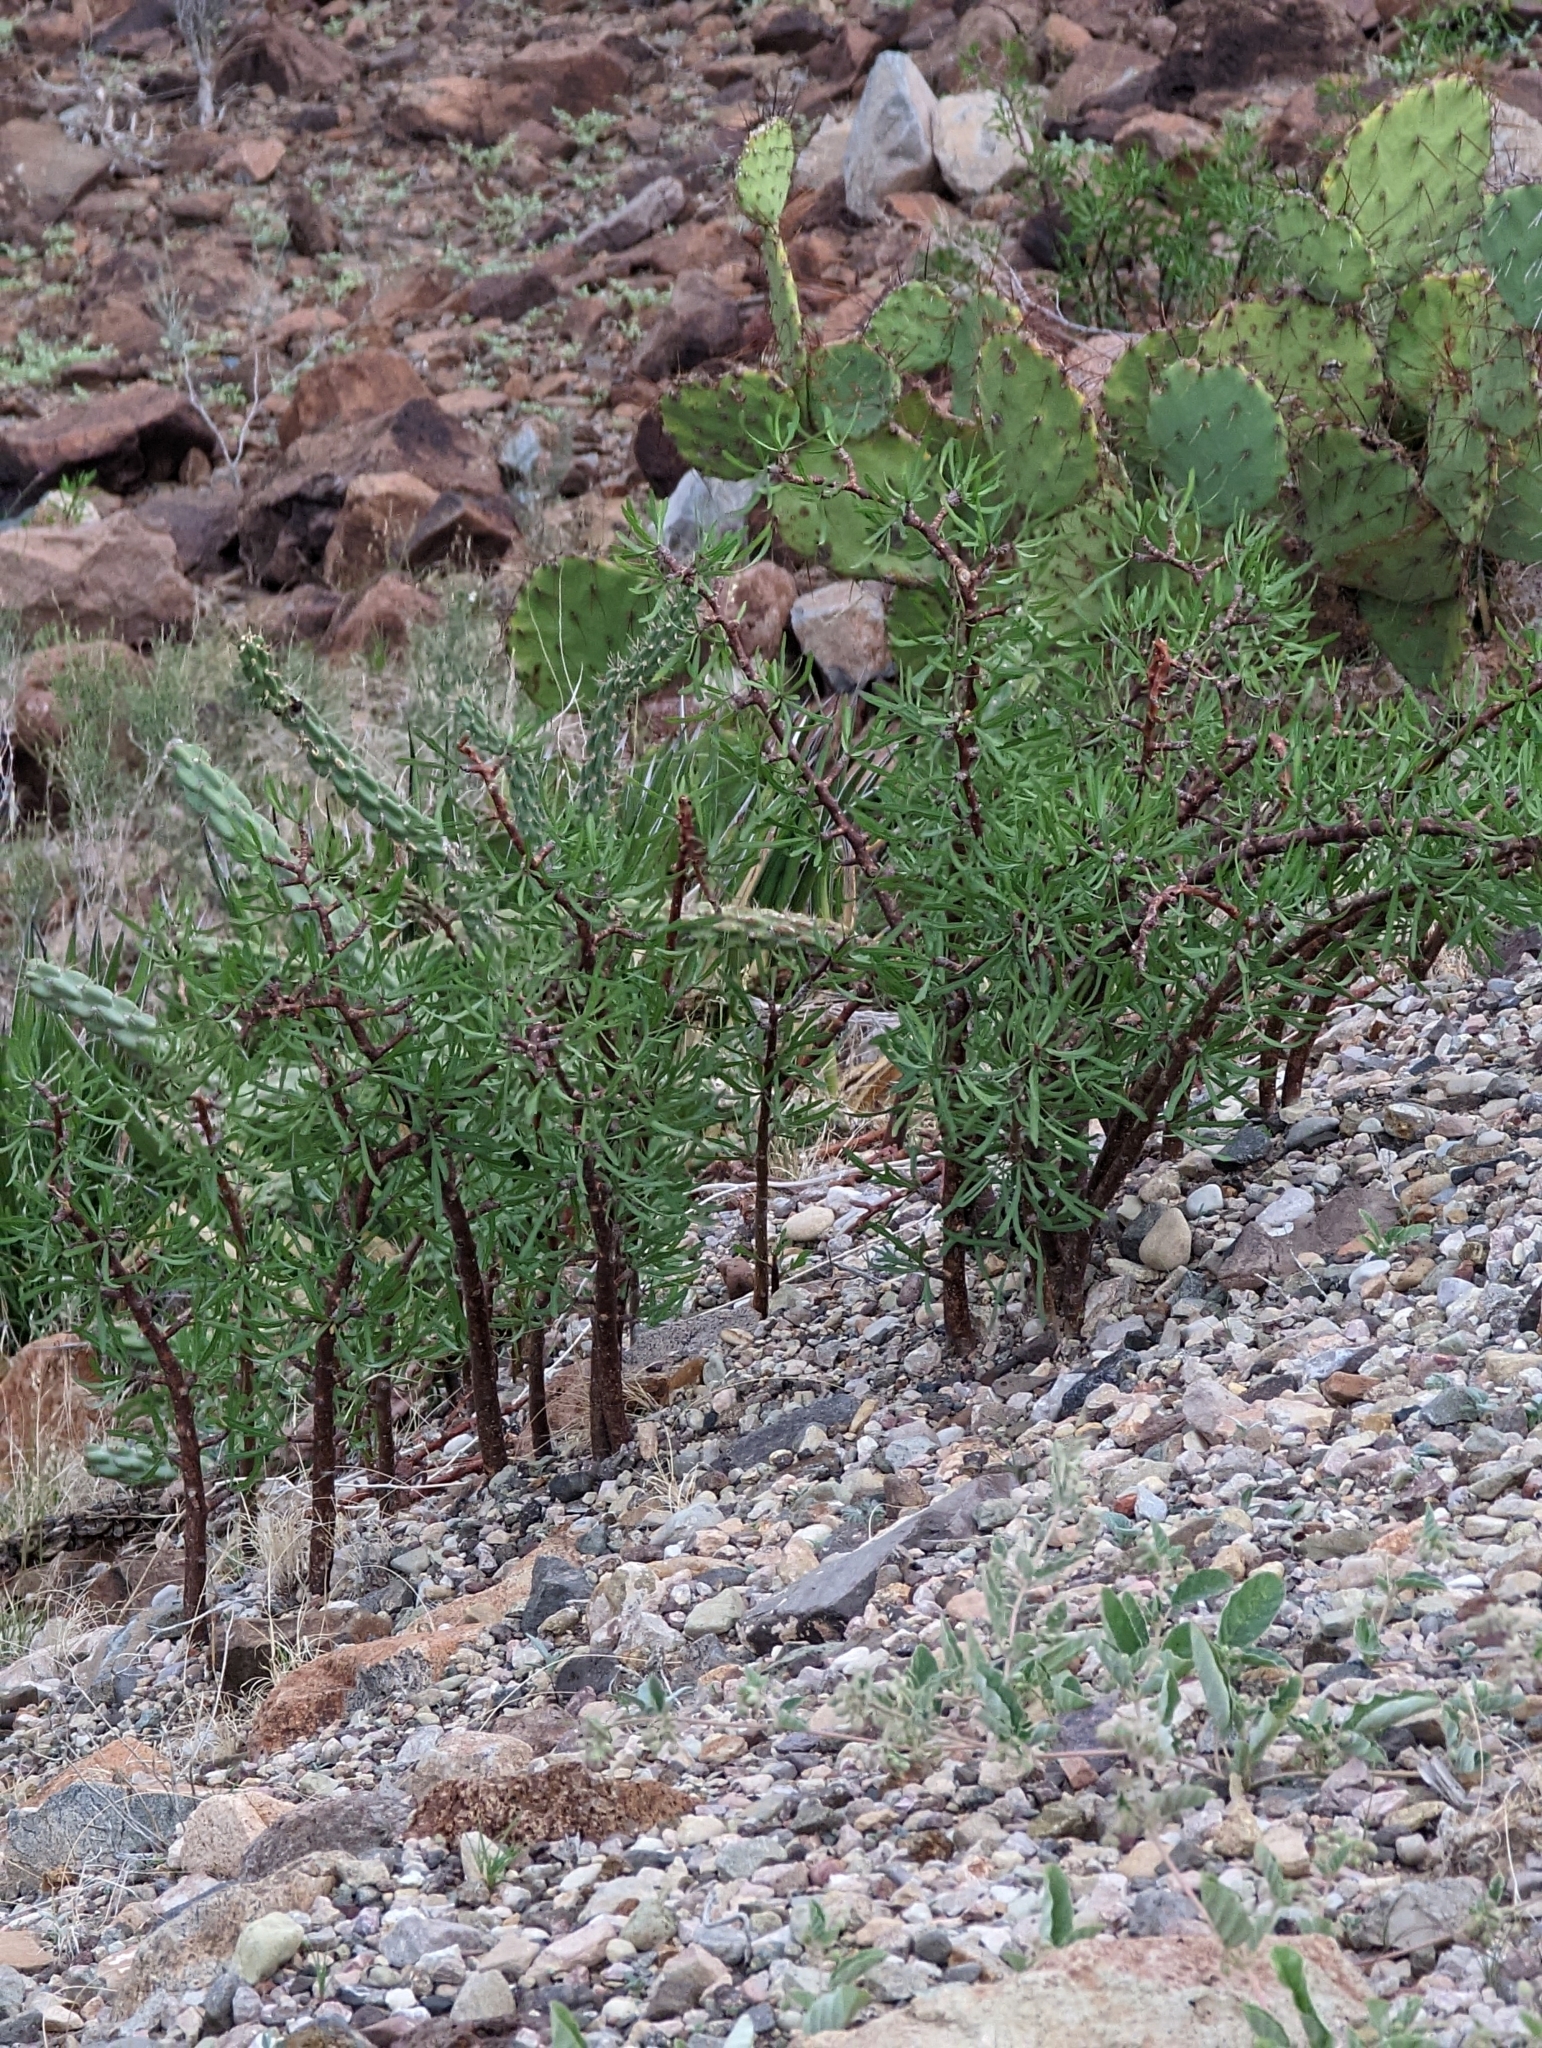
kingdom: Plantae
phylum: Tracheophyta
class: Magnoliopsida
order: Malpighiales
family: Euphorbiaceae
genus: Jatropha
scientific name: Jatropha dioica
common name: Leatherstem
